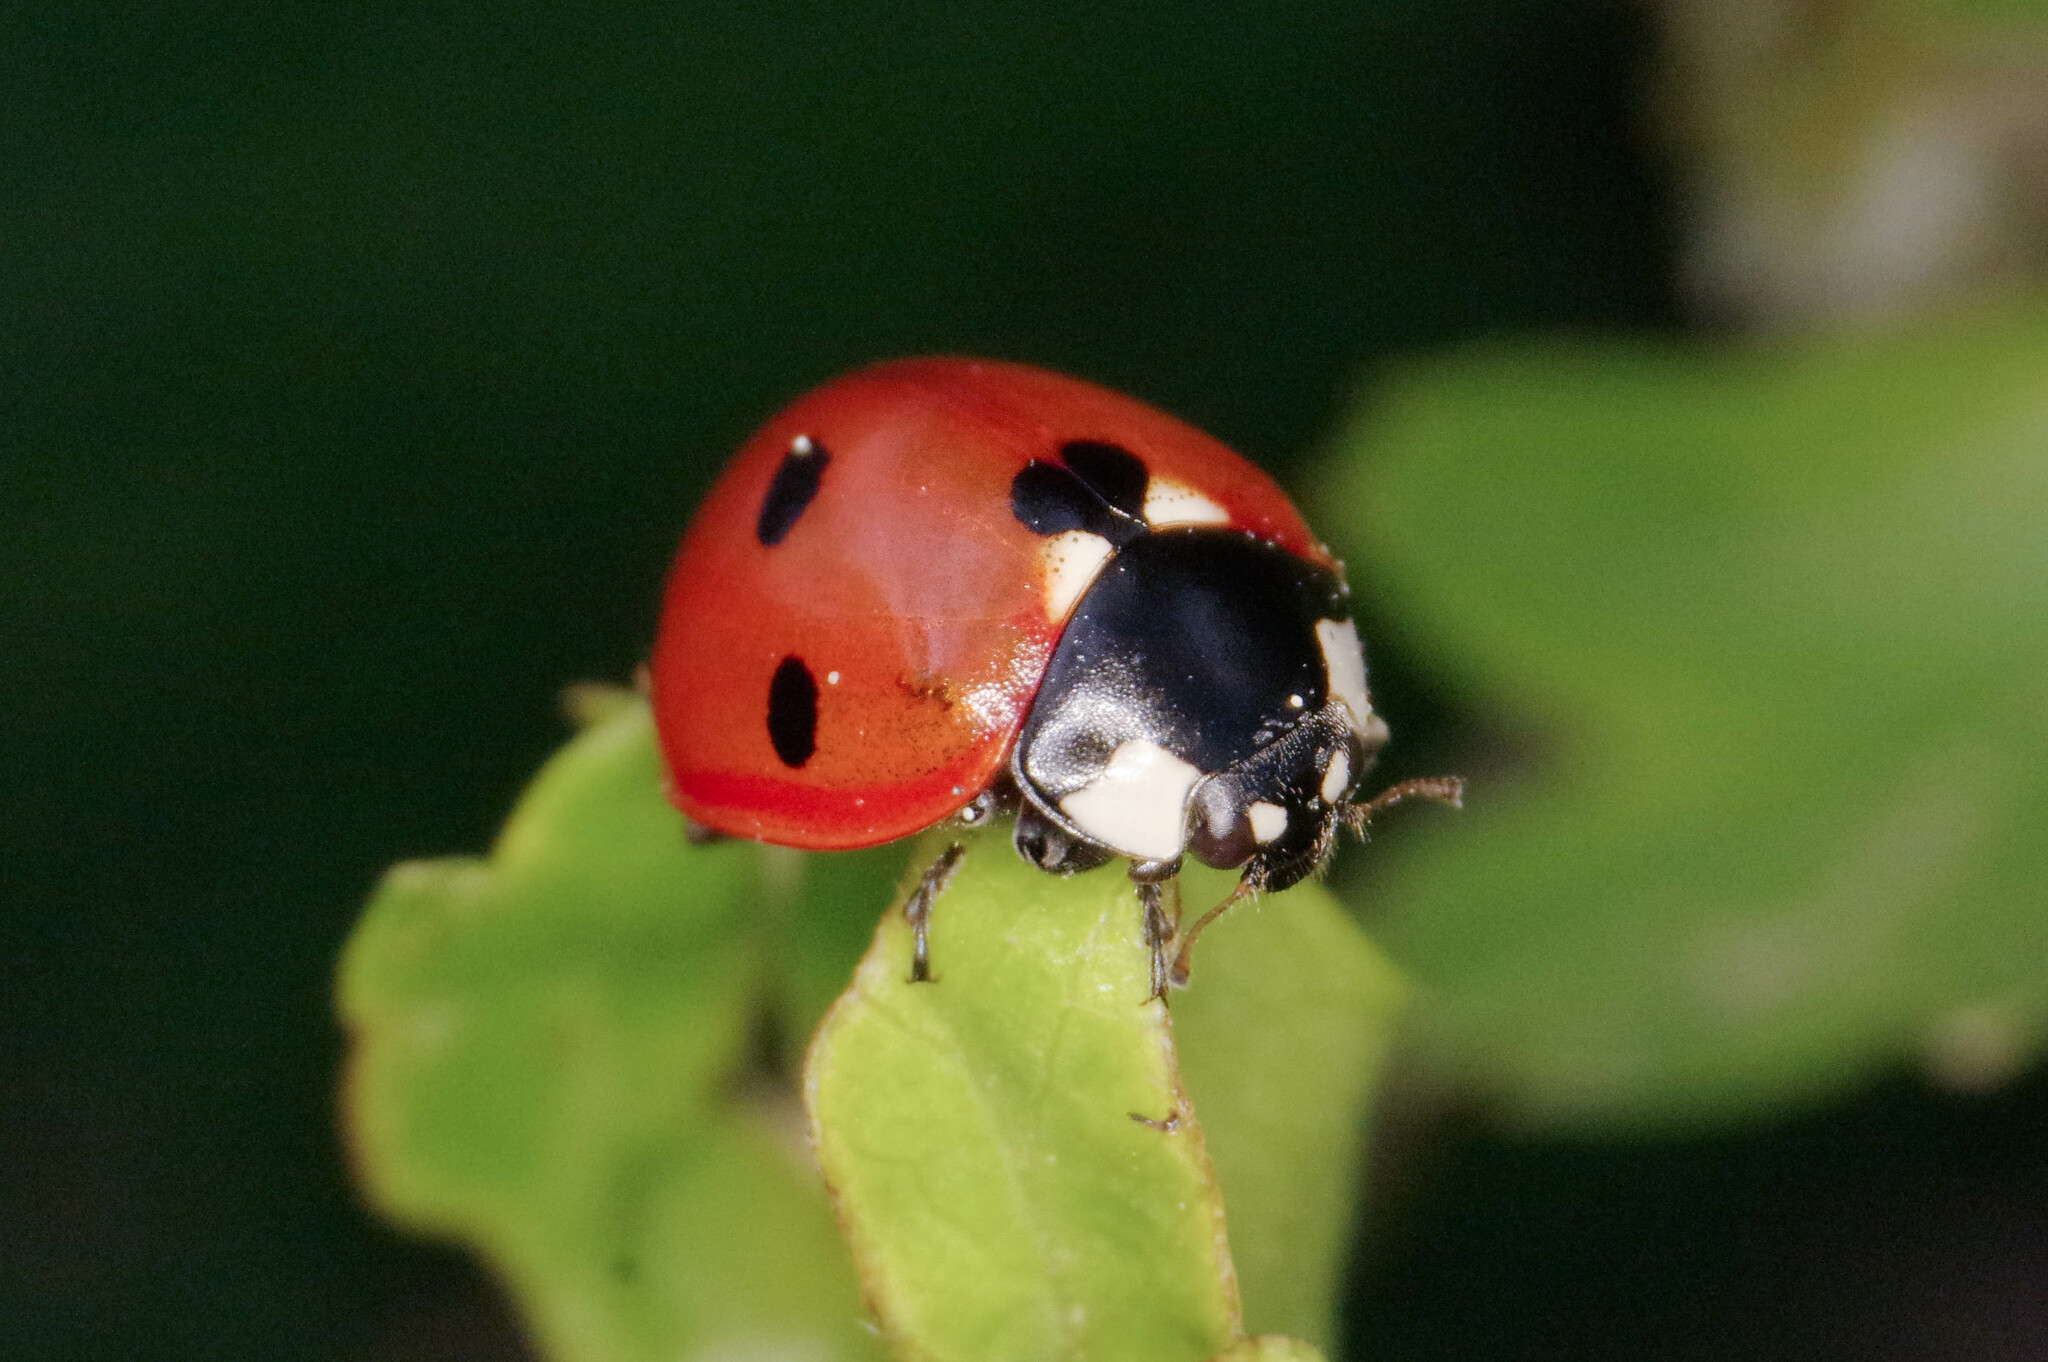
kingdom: Animalia
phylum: Arthropoda
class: Insecta
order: Coleoptera
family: Coccinellidae
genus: Coccinella
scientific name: Coccinella septempunctata
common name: Sevenspotted lady beetle
